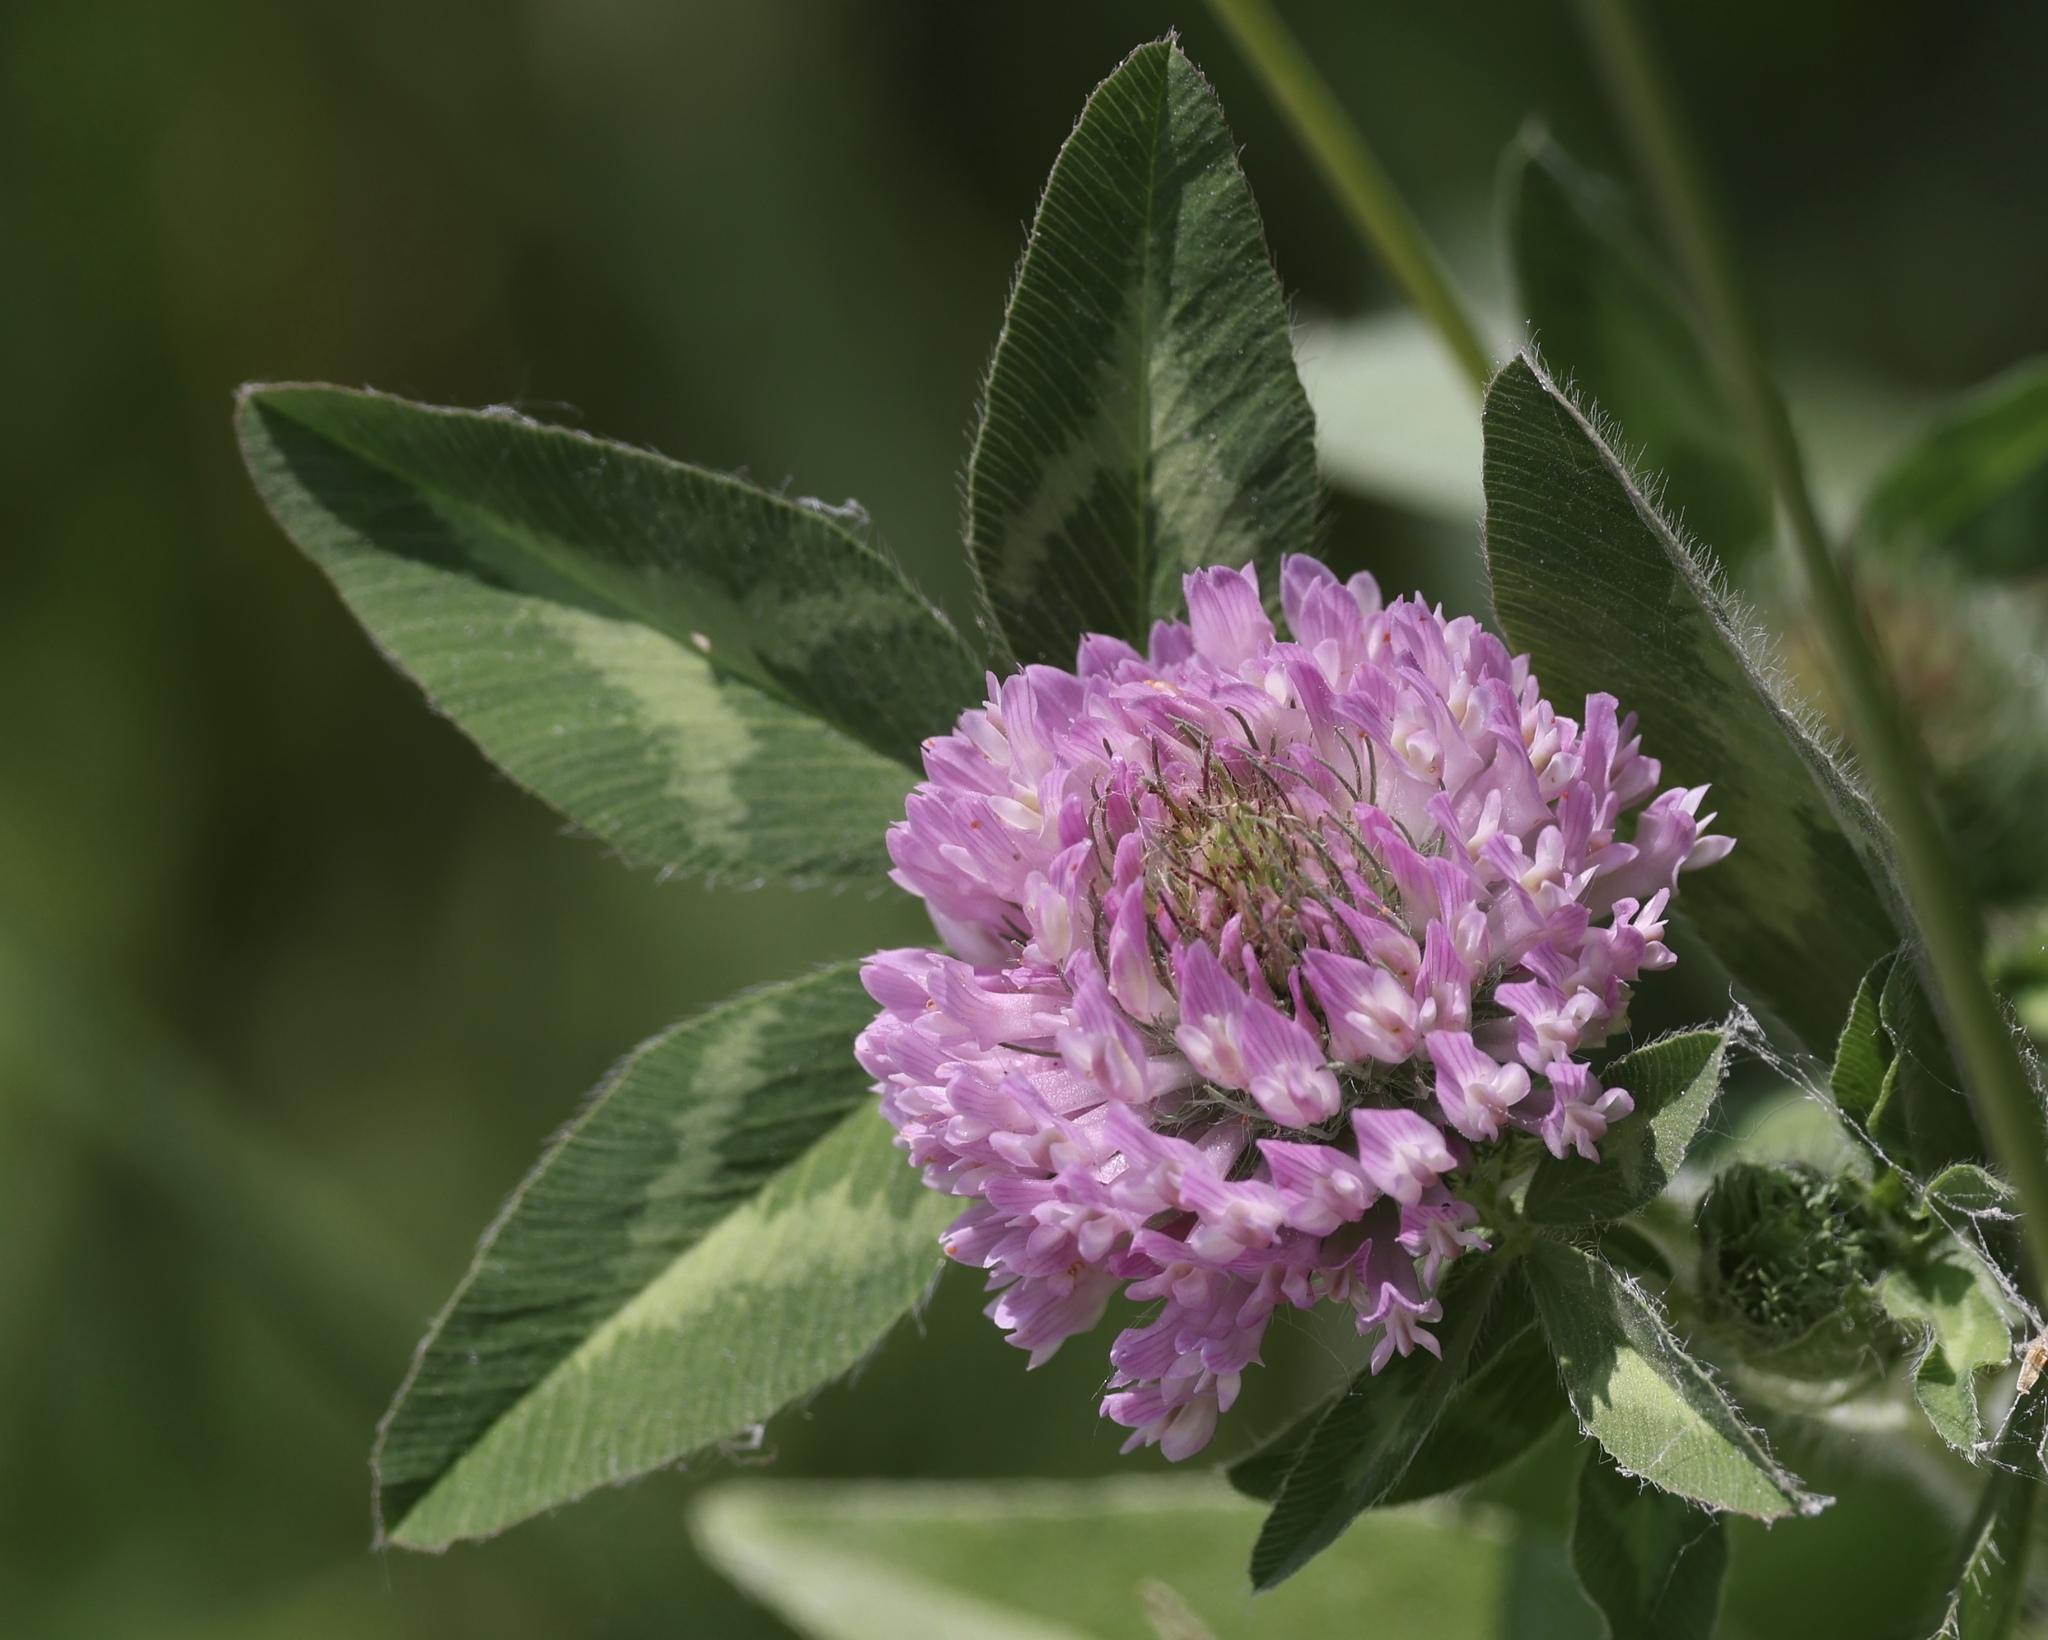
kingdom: Plantae
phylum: Tracheophyta
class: Magnoliopsida
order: Fabales
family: Fabaceae
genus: Trifolium
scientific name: Trifolium pratense
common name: Red clover
